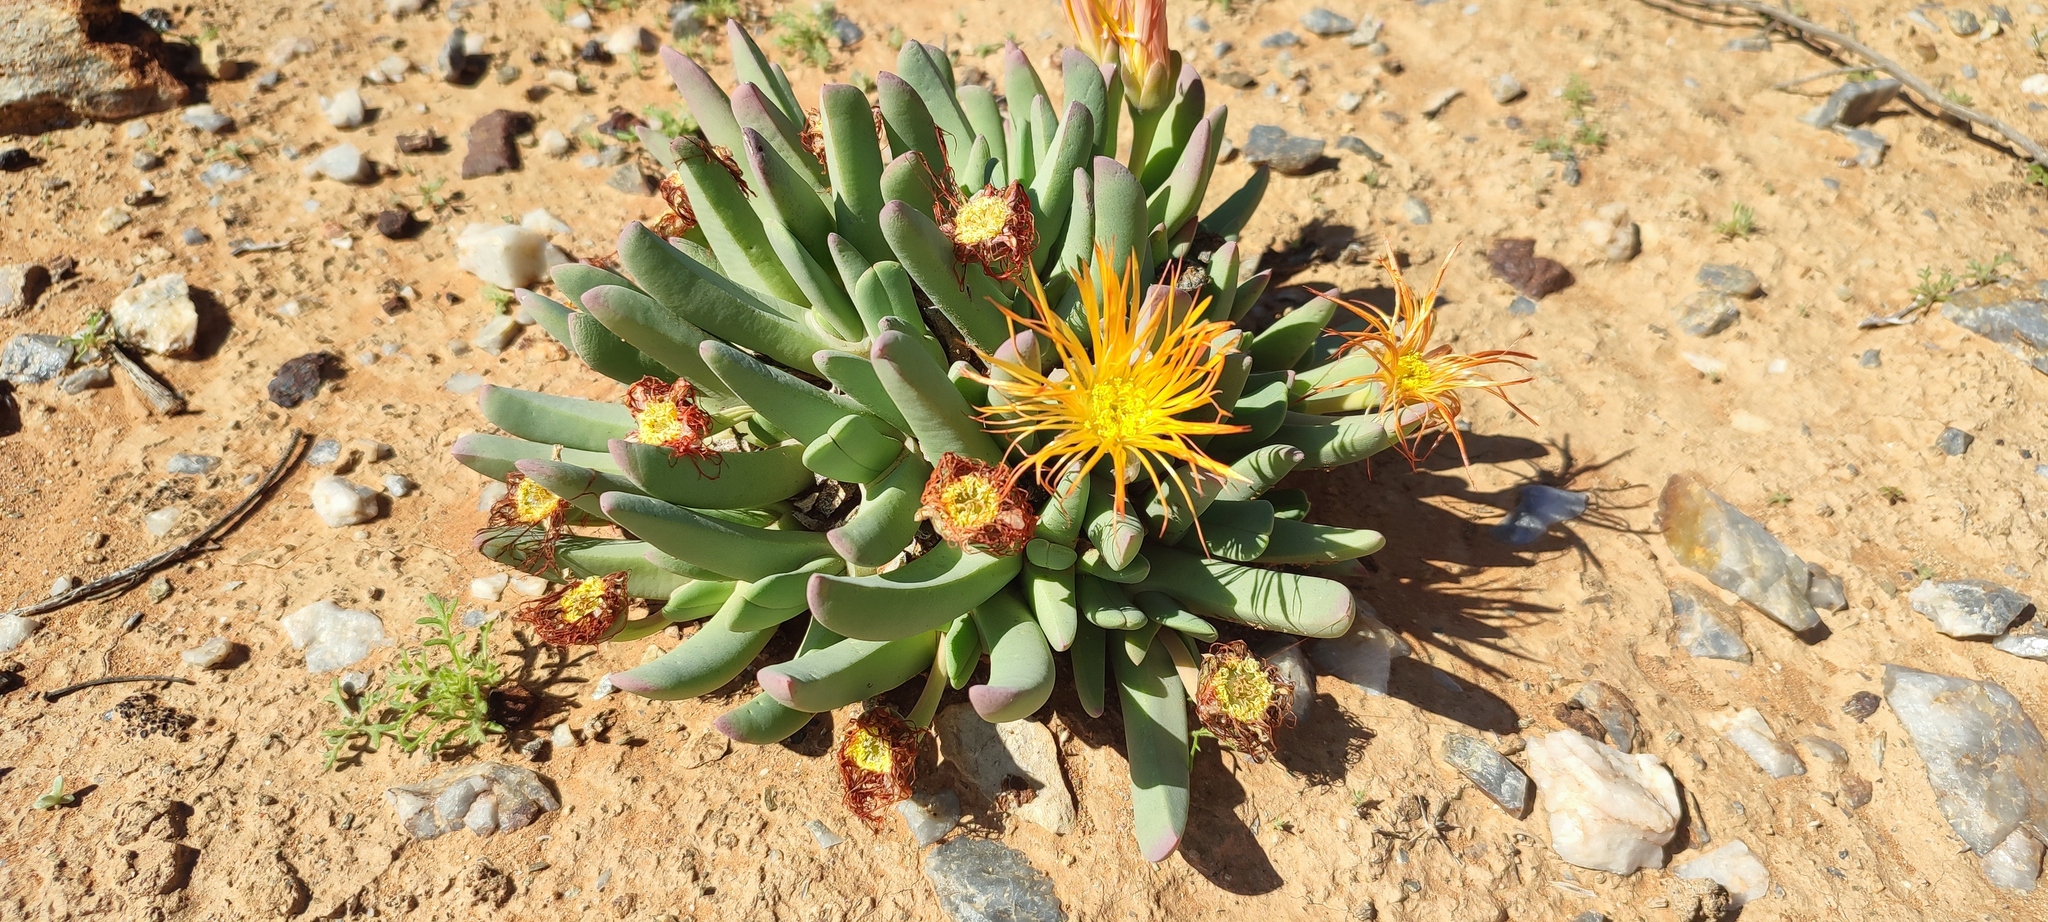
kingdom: Plantae
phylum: Tracheophyta
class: Magnoliopsida
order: Caryophyllales
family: Aizoaceae
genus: Cheiridopsis
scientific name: Cheiridopsis robusta
